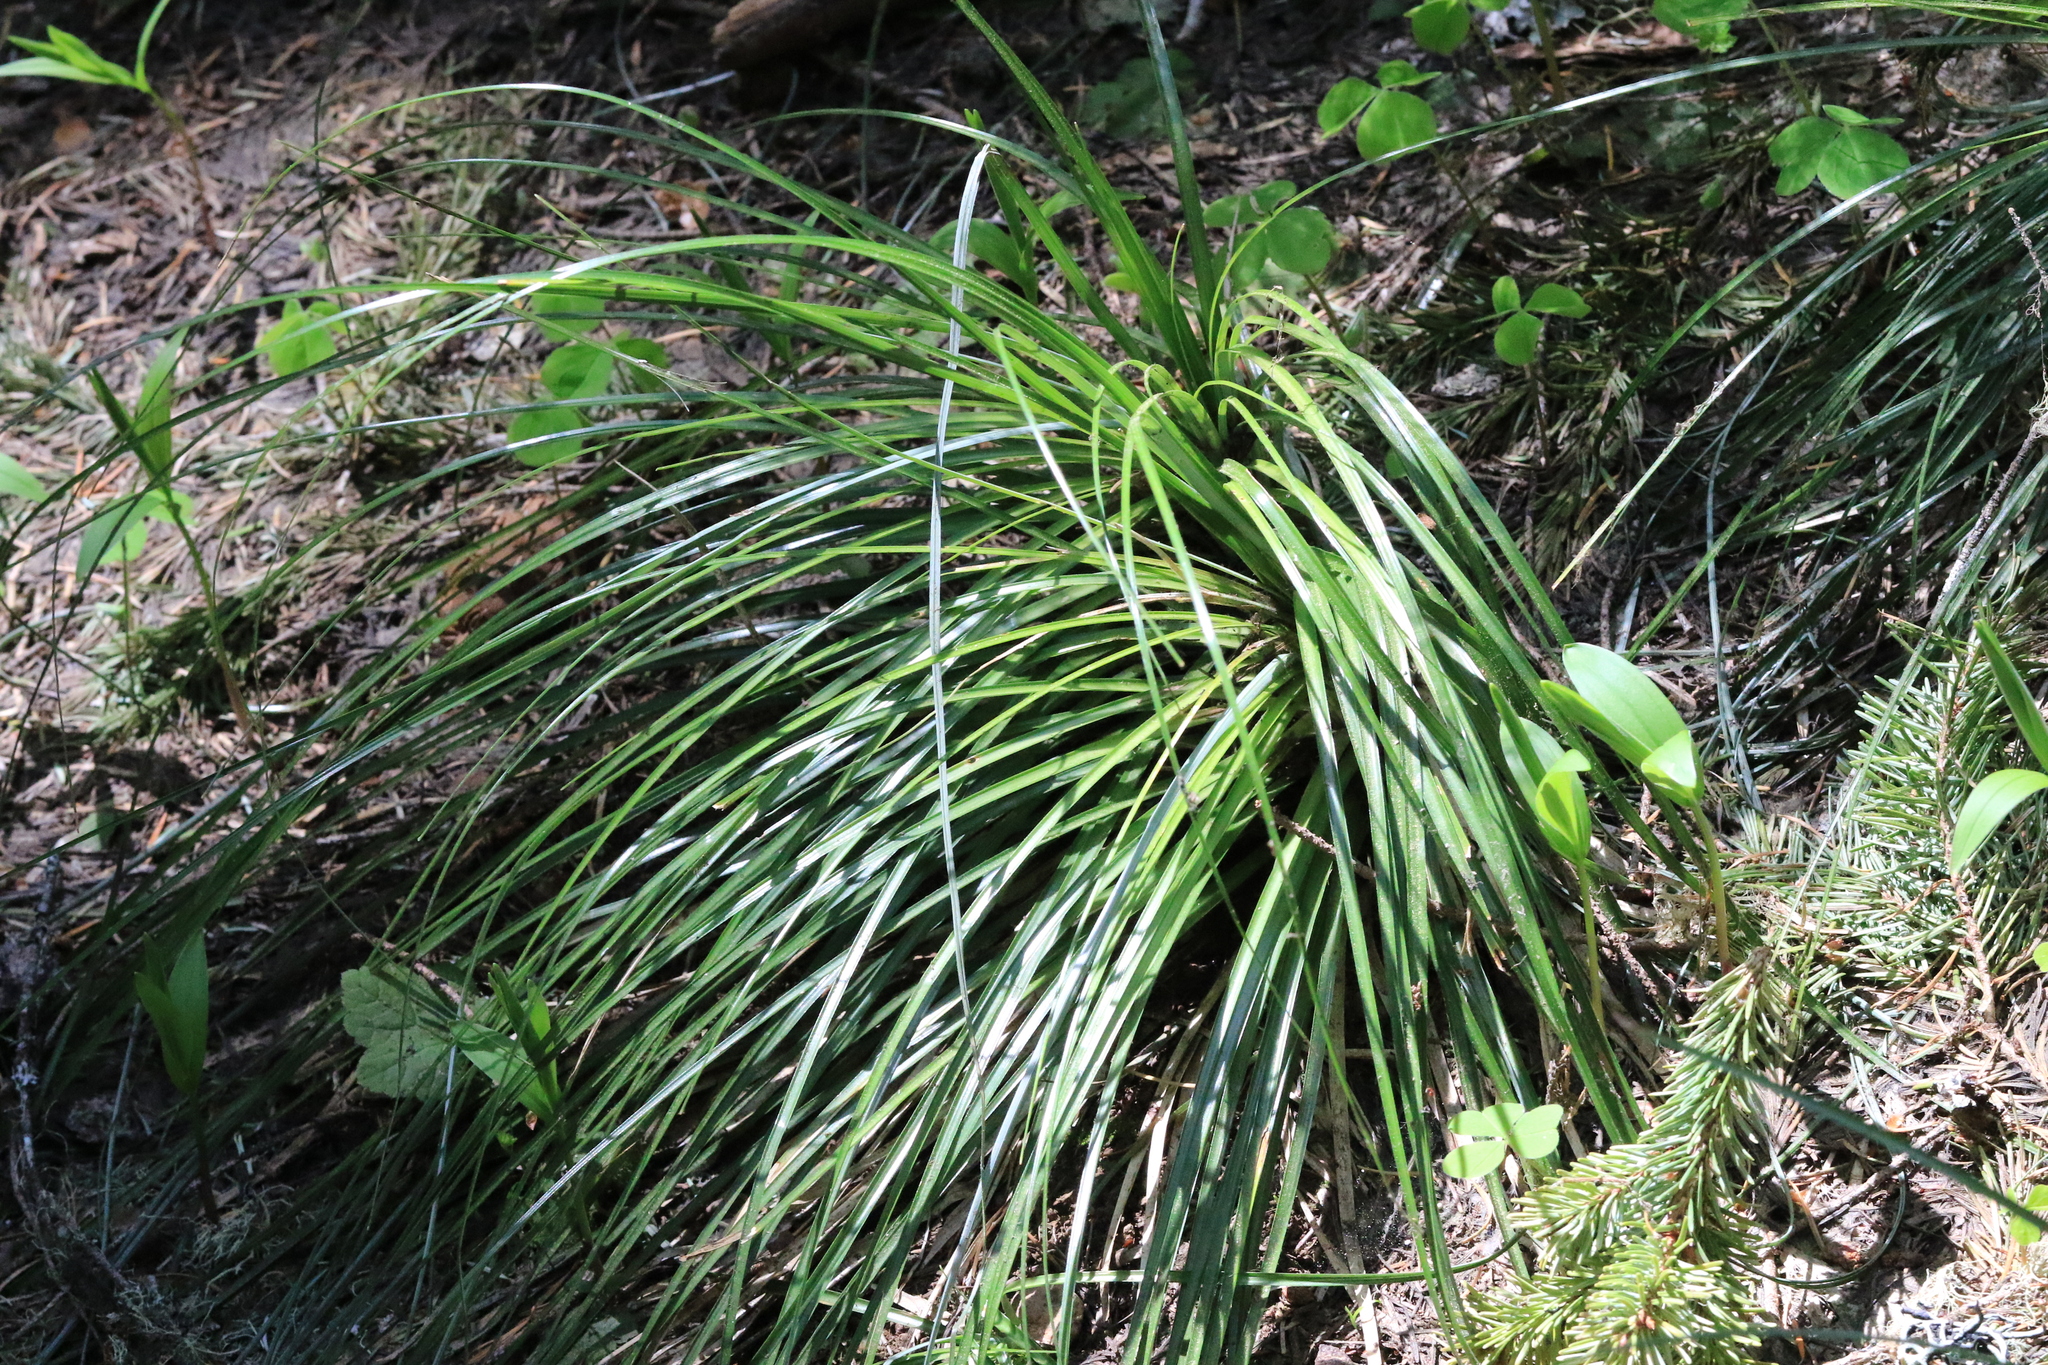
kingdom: Plantae
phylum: Tracheophyta
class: Liliopsida
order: Liliales
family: Melanthiaceae
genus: Xerophyllum
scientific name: Xerophyllum tenax
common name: Bear-grass
